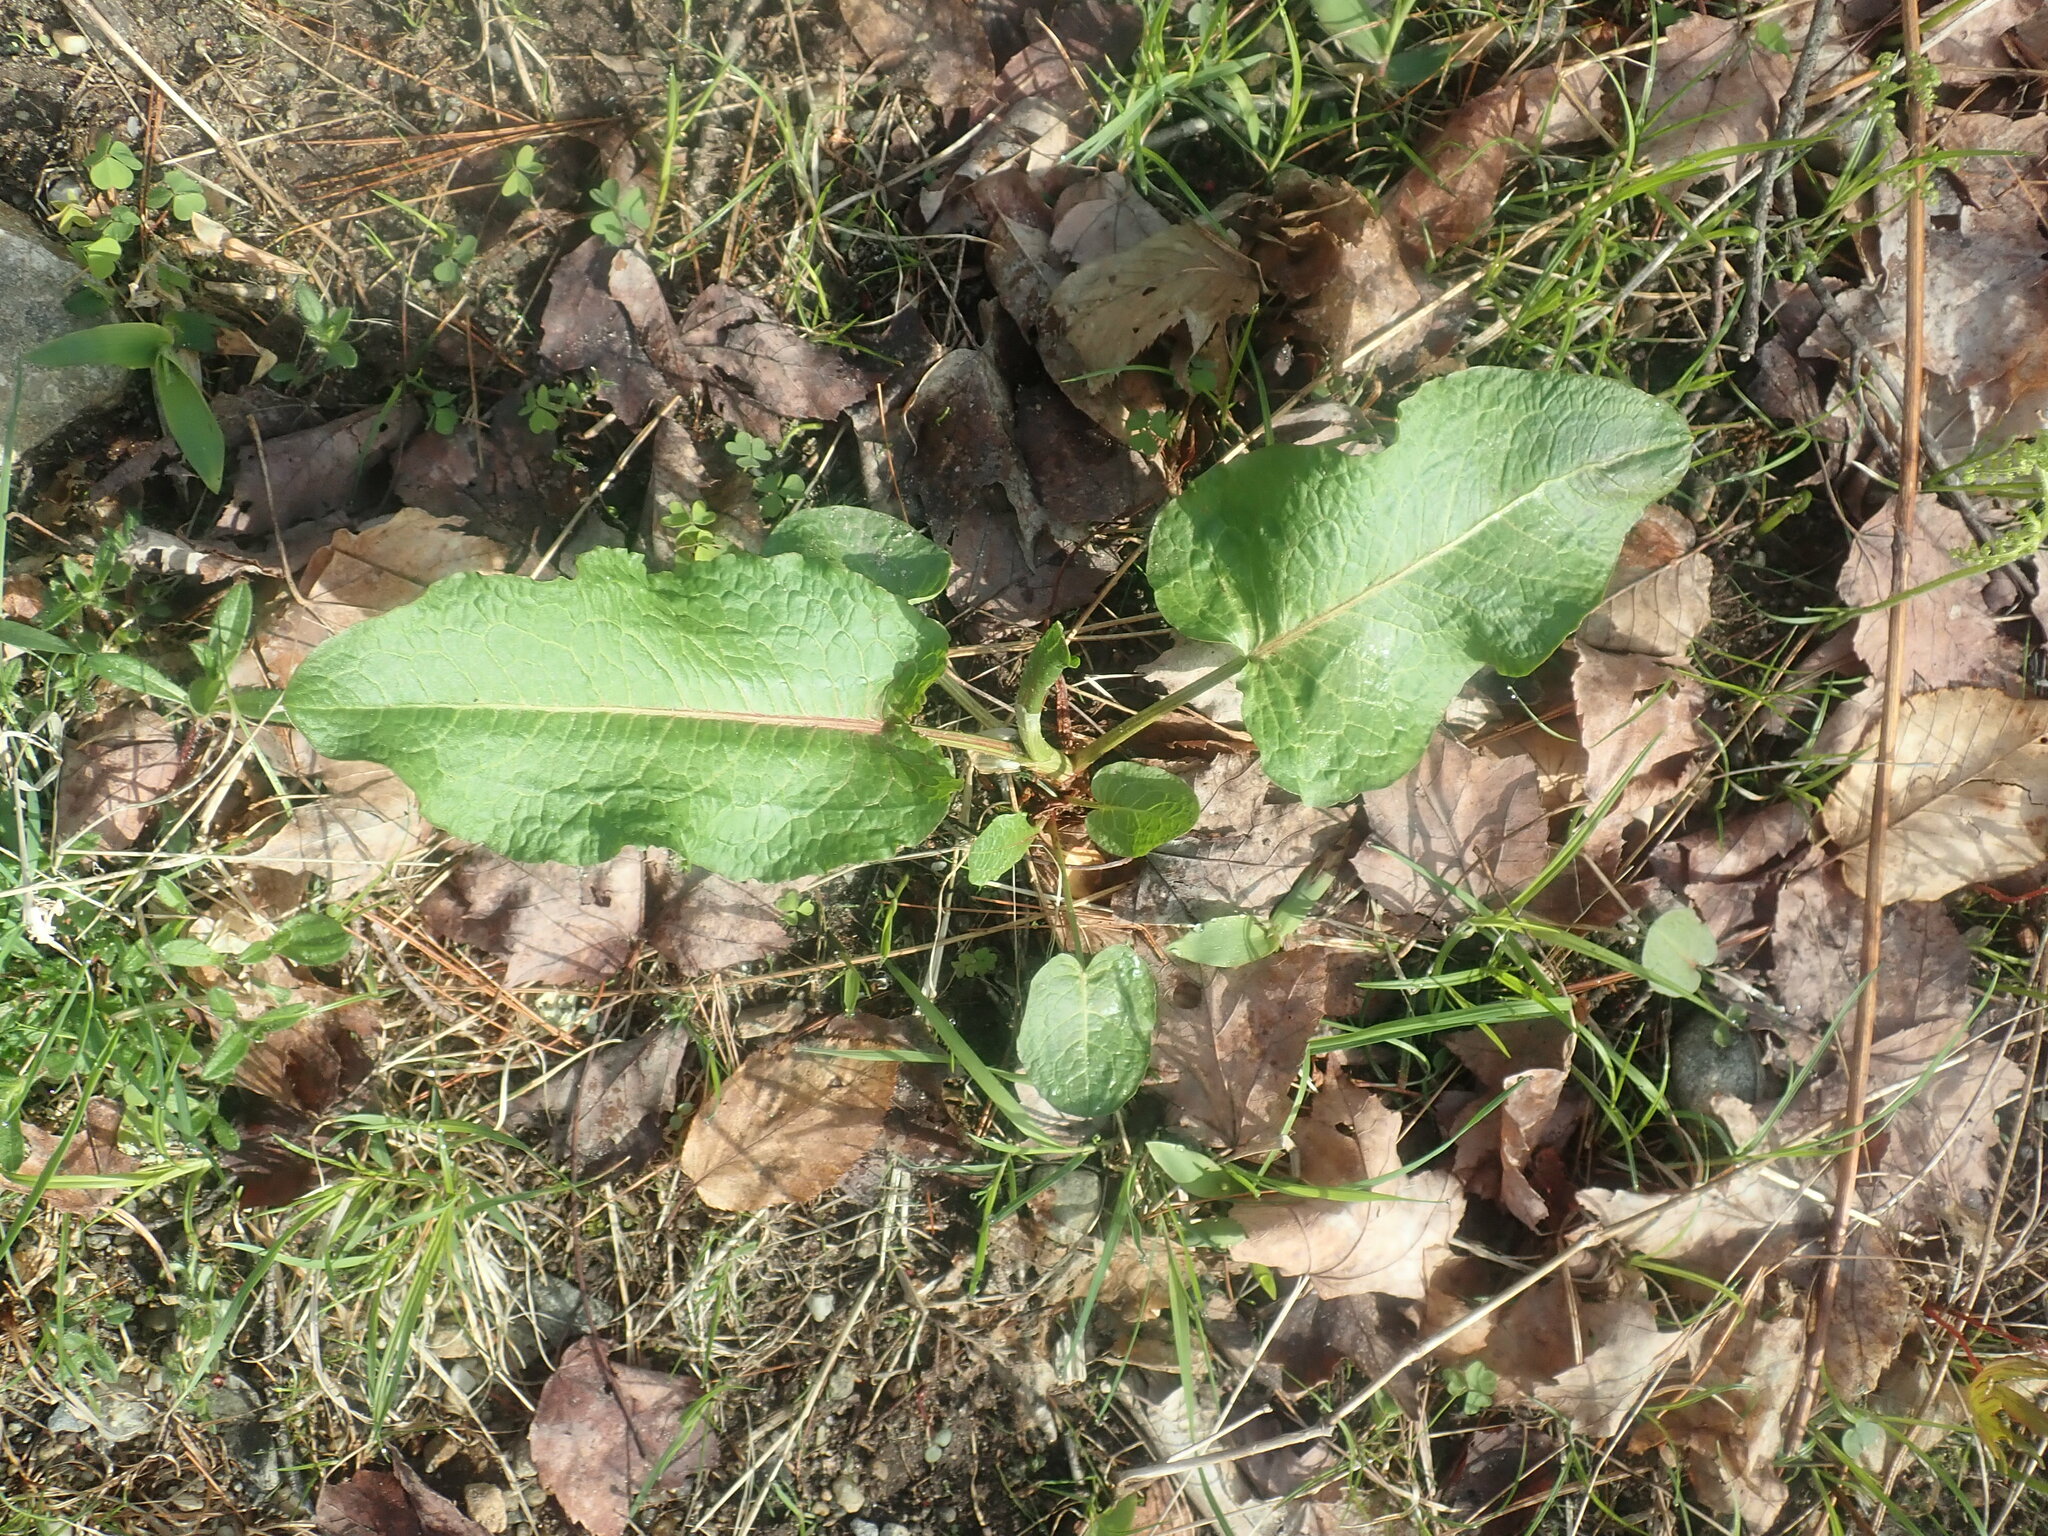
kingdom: Plantae
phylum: Tracheophyta
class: Magnoliopsida
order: Caryophyllales
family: Polygonaceae
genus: Rumex
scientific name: Rumex obtusifolius
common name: Bitter dock
